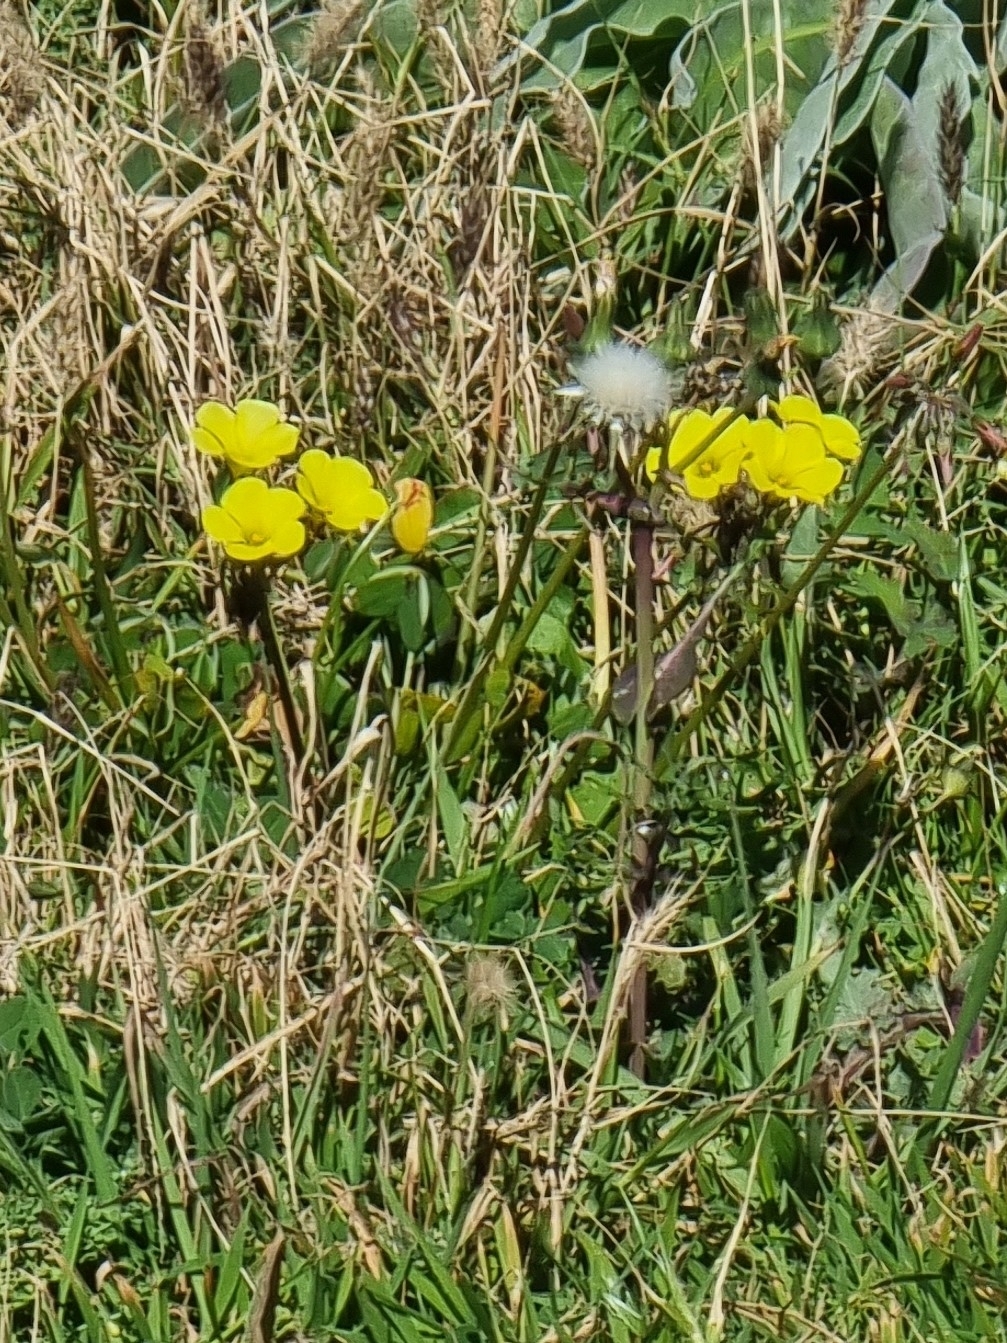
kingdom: Plantae
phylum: Tracheophyta
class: Magnoliopsida
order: Oxalidales
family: Oxalidaceae
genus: Oxalis
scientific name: Oxalis pes-caprae
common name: Bermuda-buttercup
